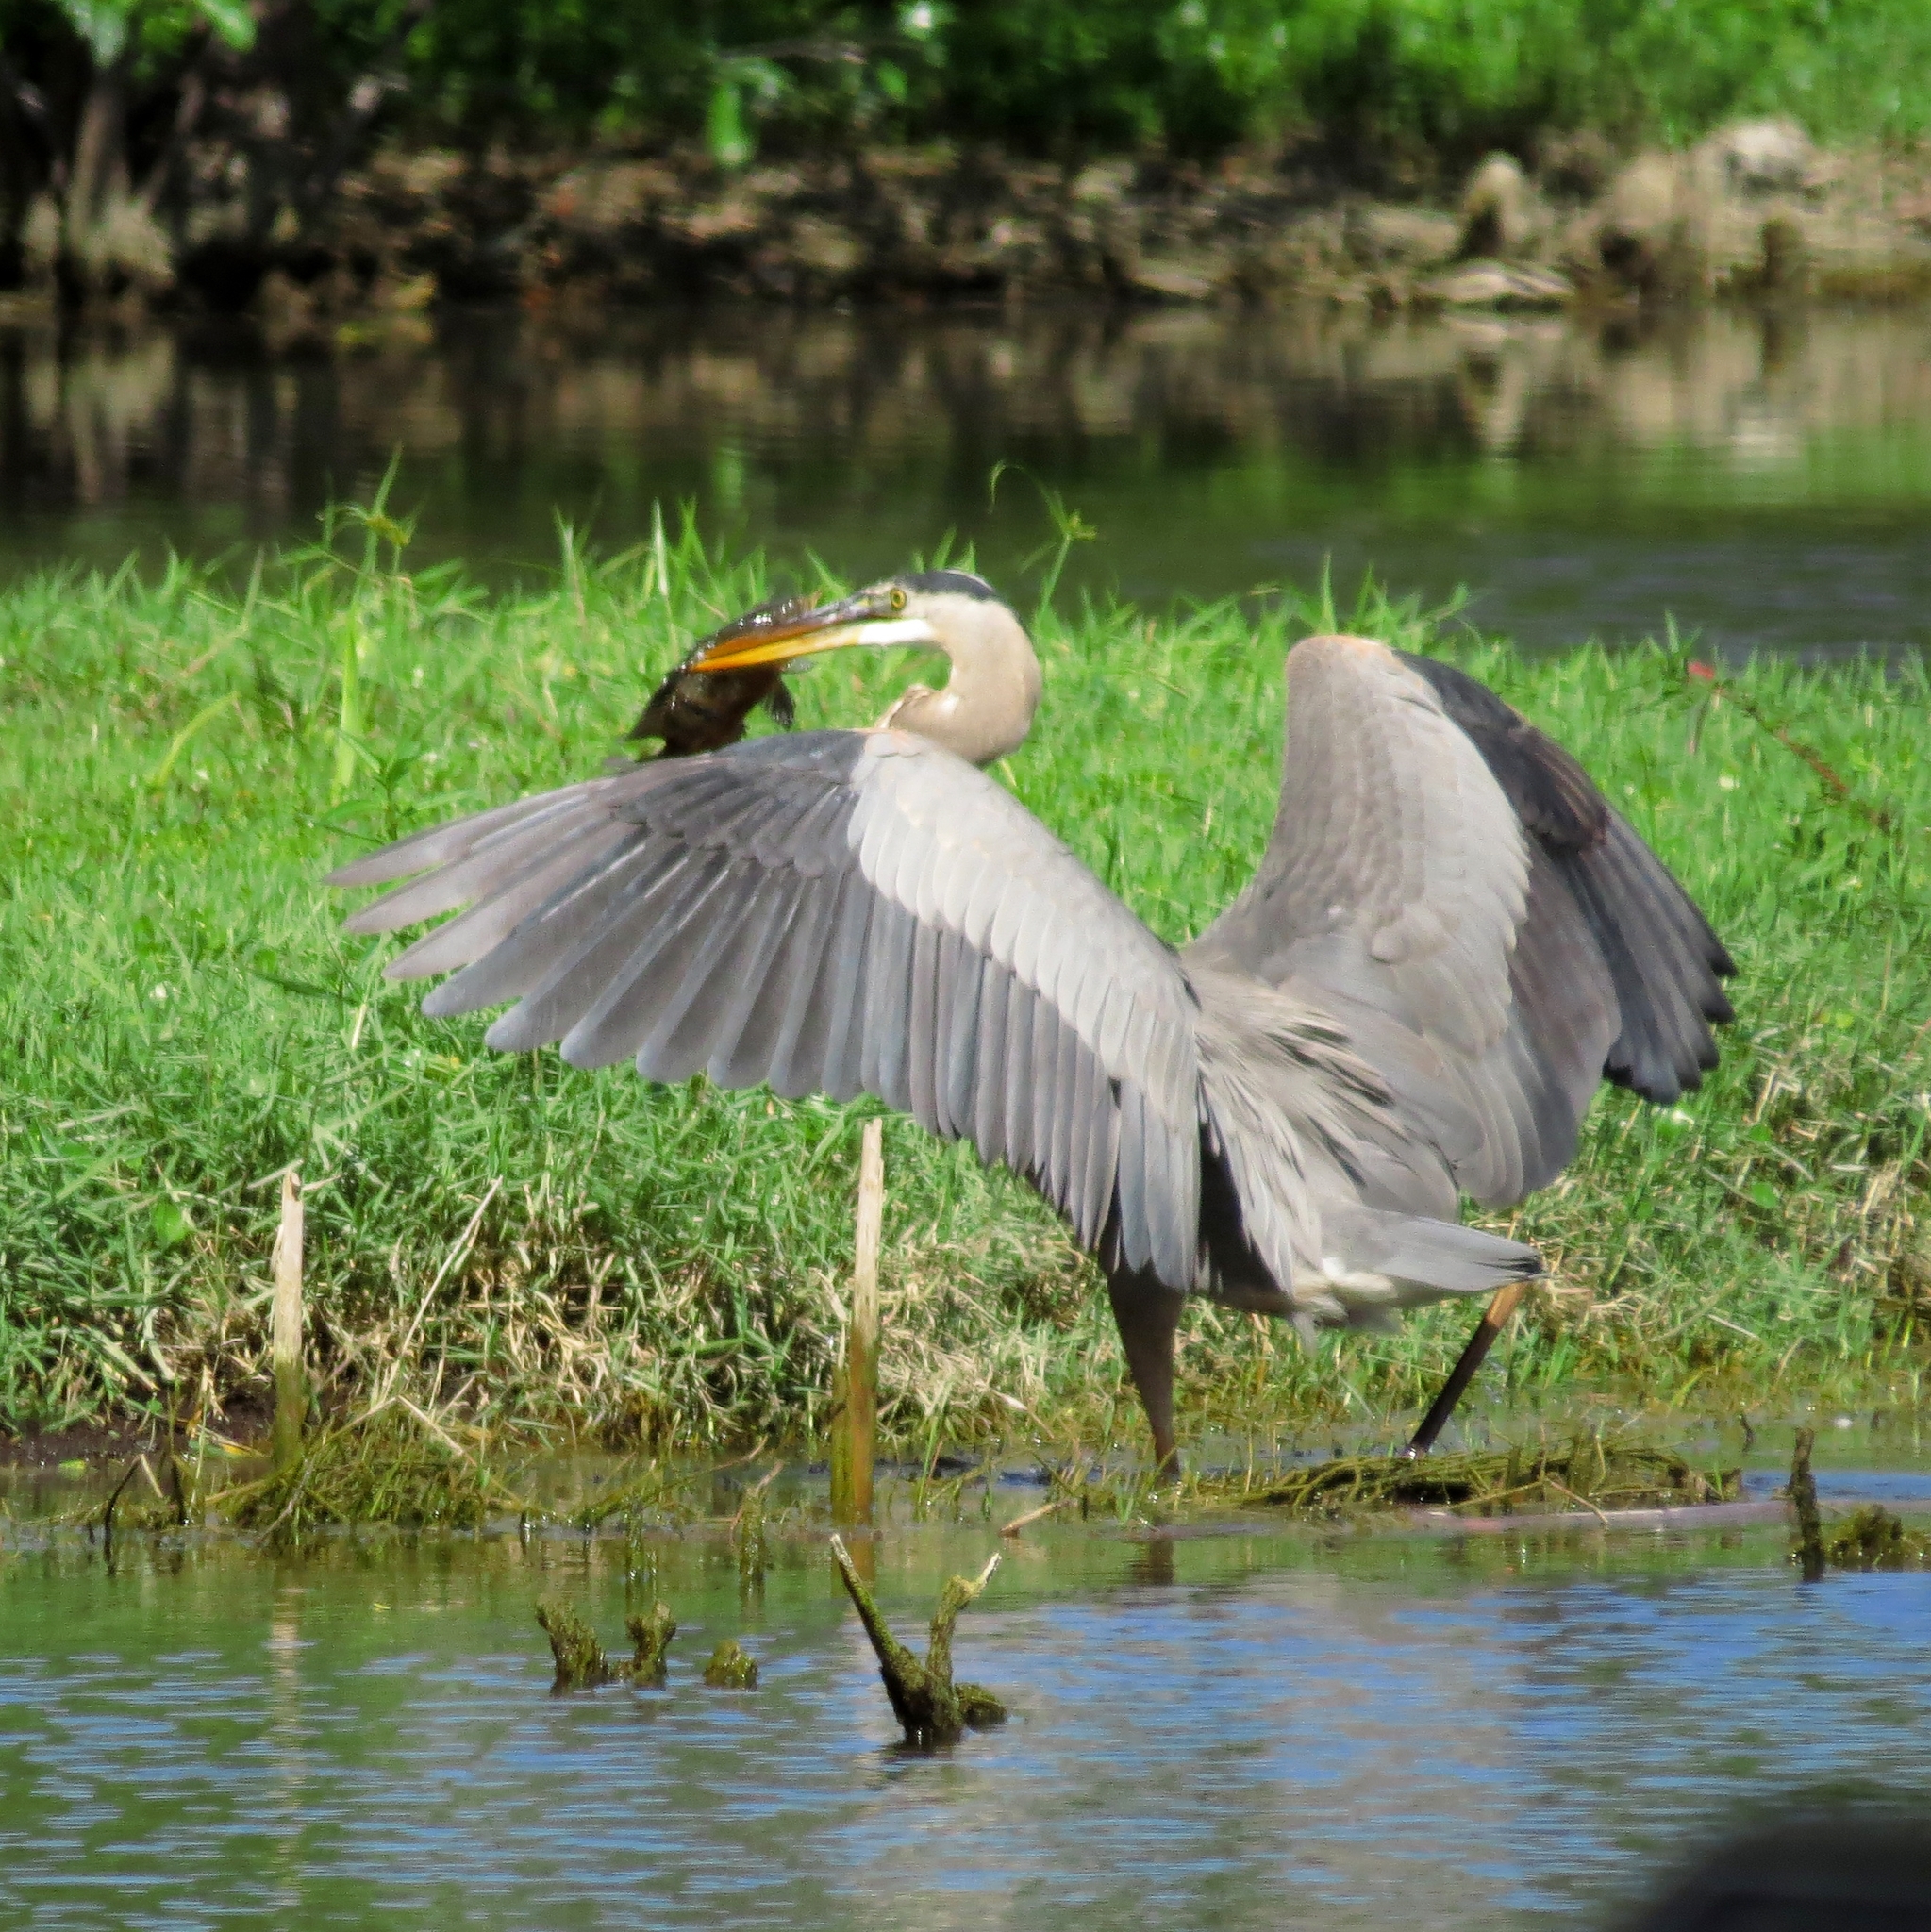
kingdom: Animalia
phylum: Chordata
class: Aves
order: Pelecaniformes
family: Ardeidae
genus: Ardea
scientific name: Ardea herodias
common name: Great blue heron
